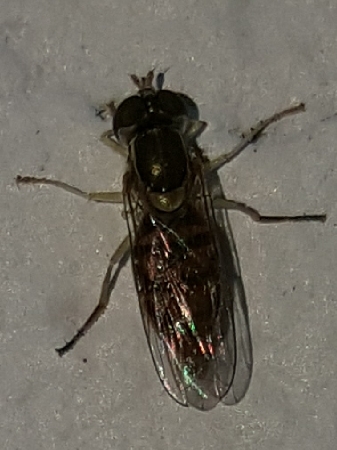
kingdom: Animalia
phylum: Arthropoda
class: Insecta
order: Diptera
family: Syrphidae
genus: Toxomerus
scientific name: Toxomerus marginatus
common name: Syrphid fly
